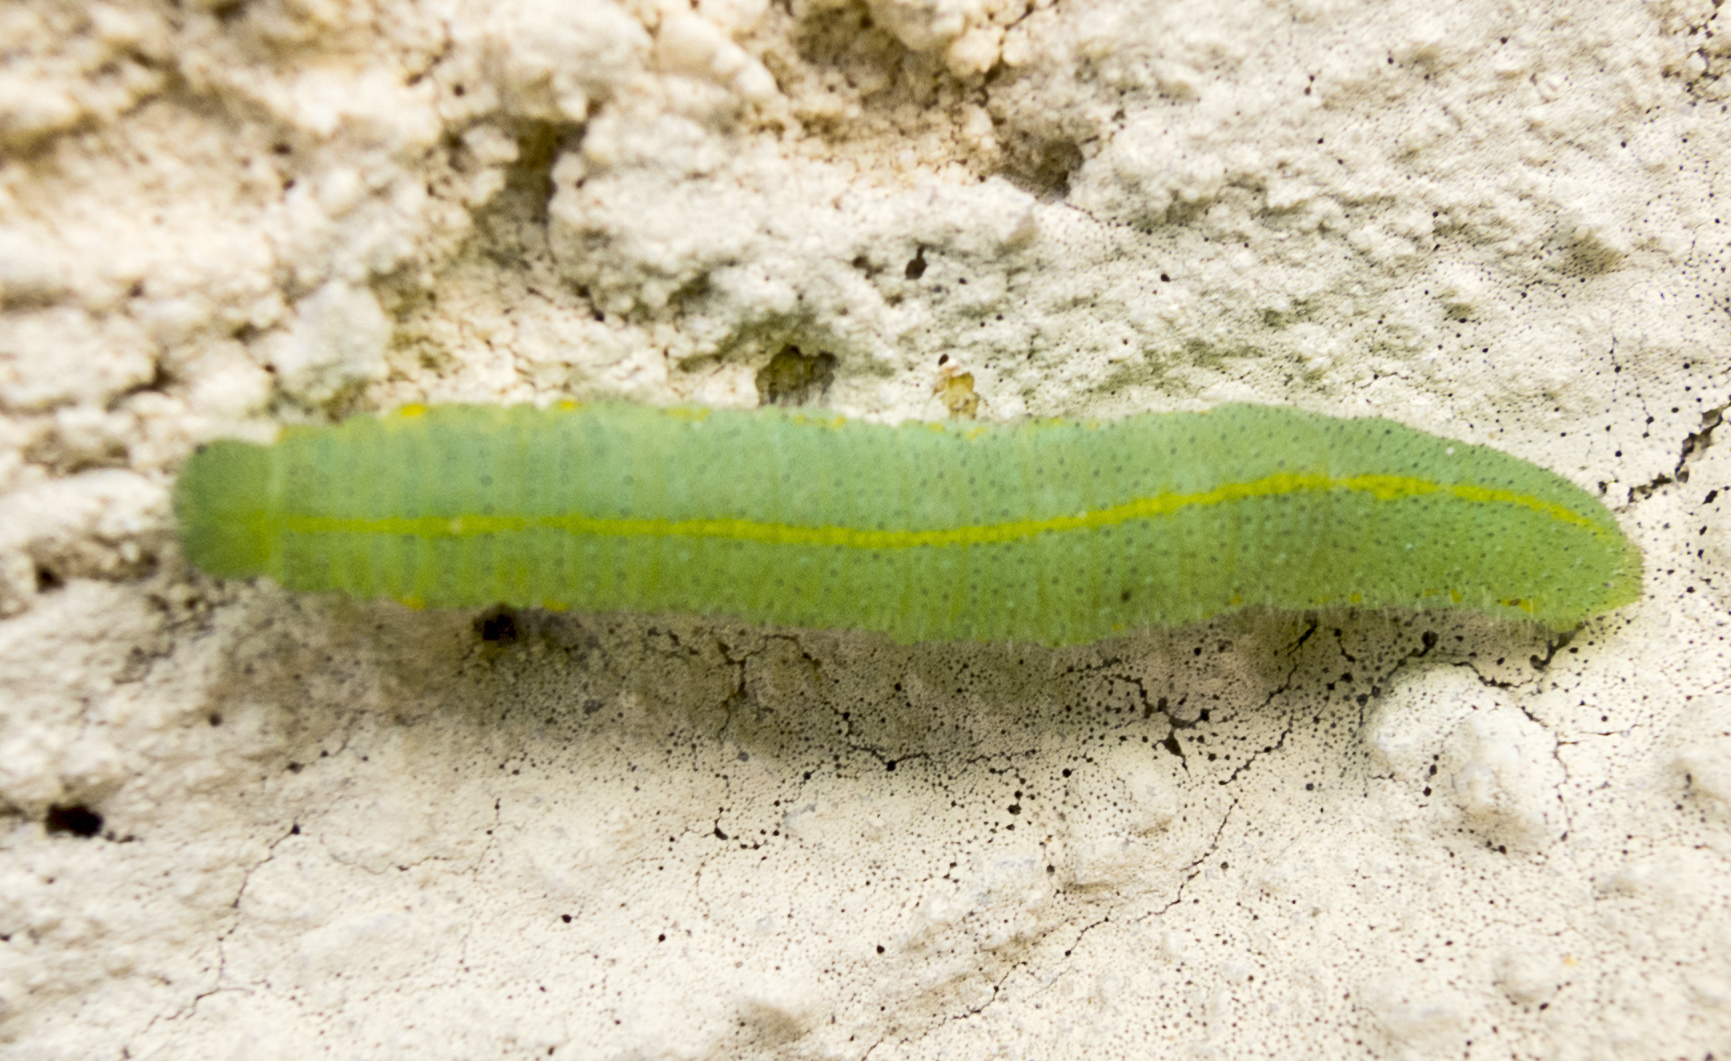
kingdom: Animalia
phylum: Arthropoda
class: Insecta
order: Lepidoptera
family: Pieridae
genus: Pieris
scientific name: Pieris rapae
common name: Small white
